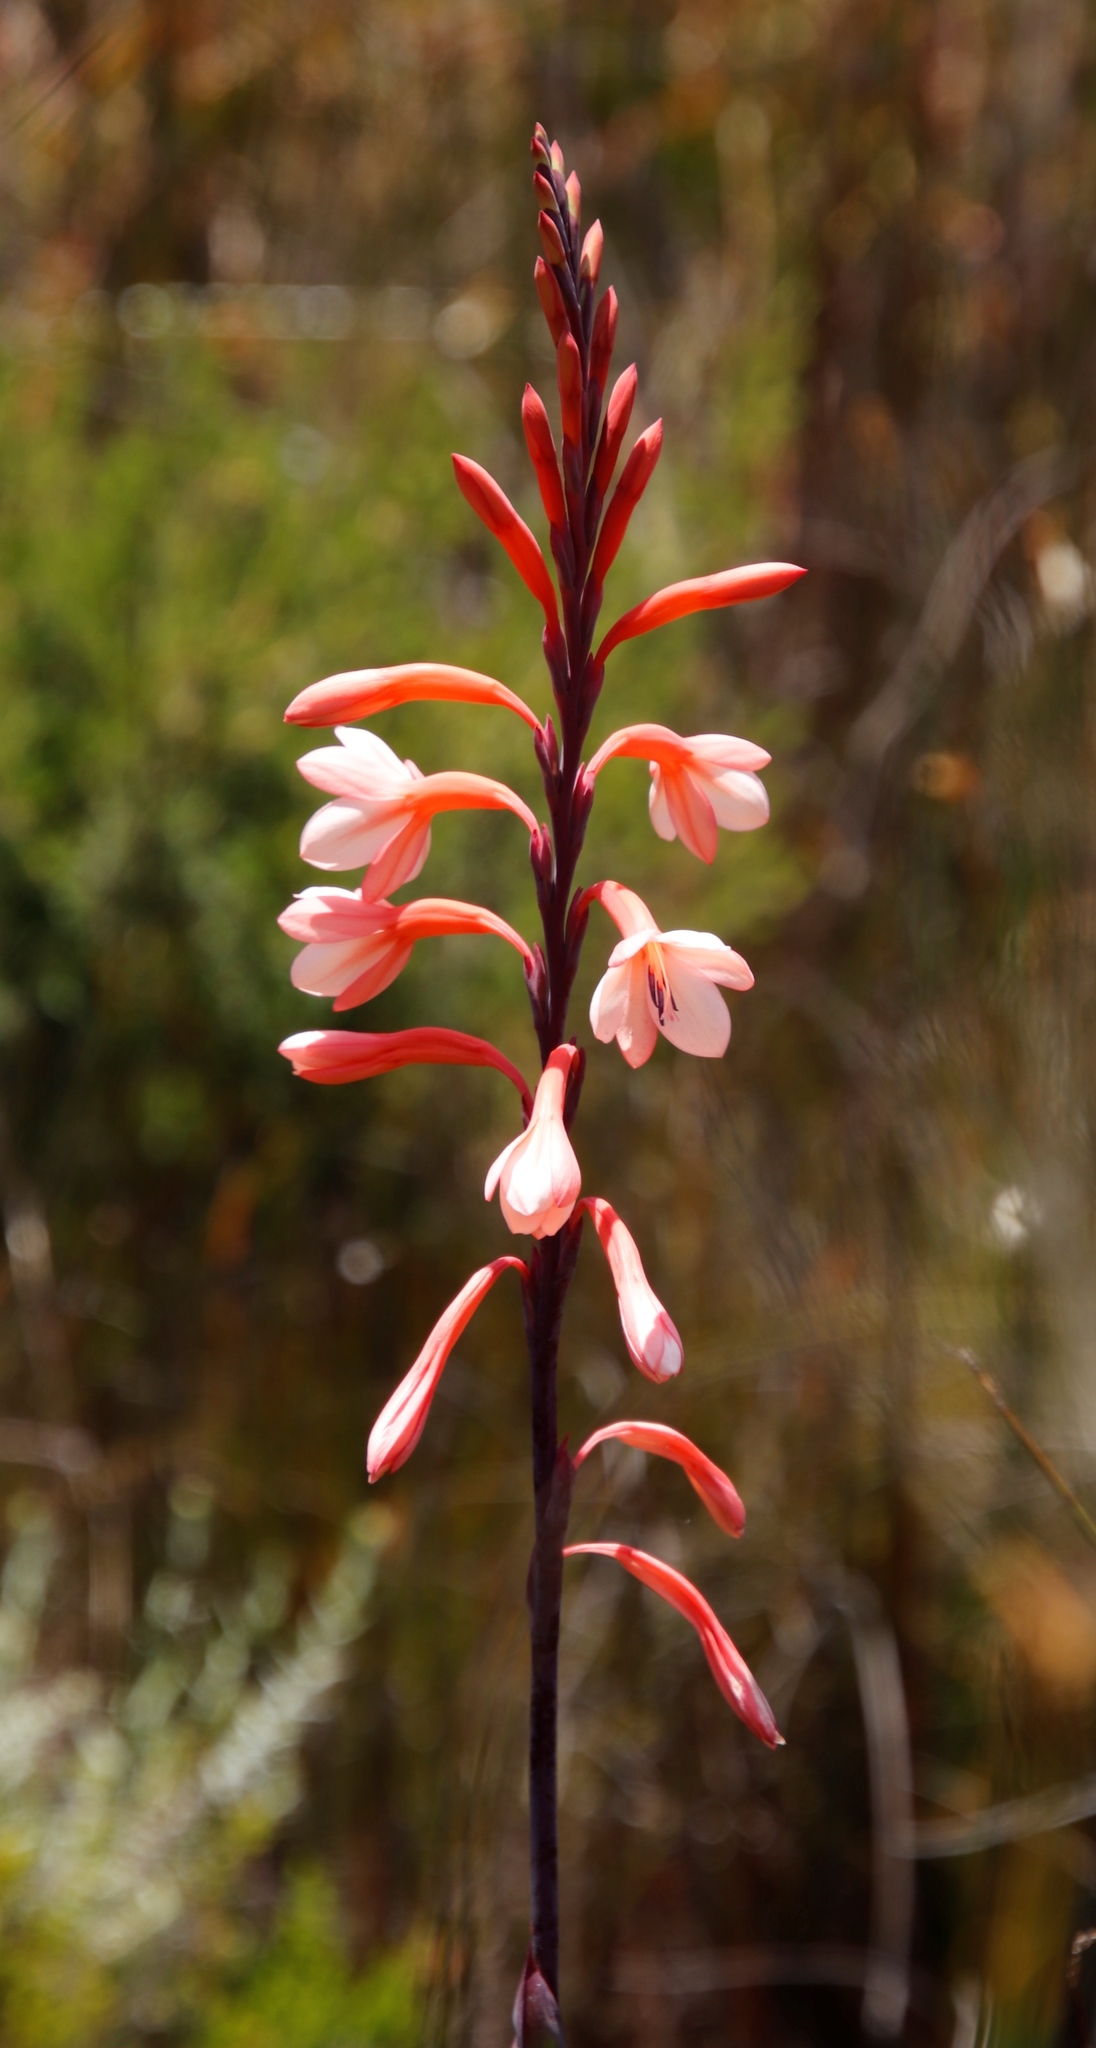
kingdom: Plantae
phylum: Tracheophyta
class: Liliopsida
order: Asparagales
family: Iridaceae
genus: Watsonia
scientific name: Watsonia tabularis
